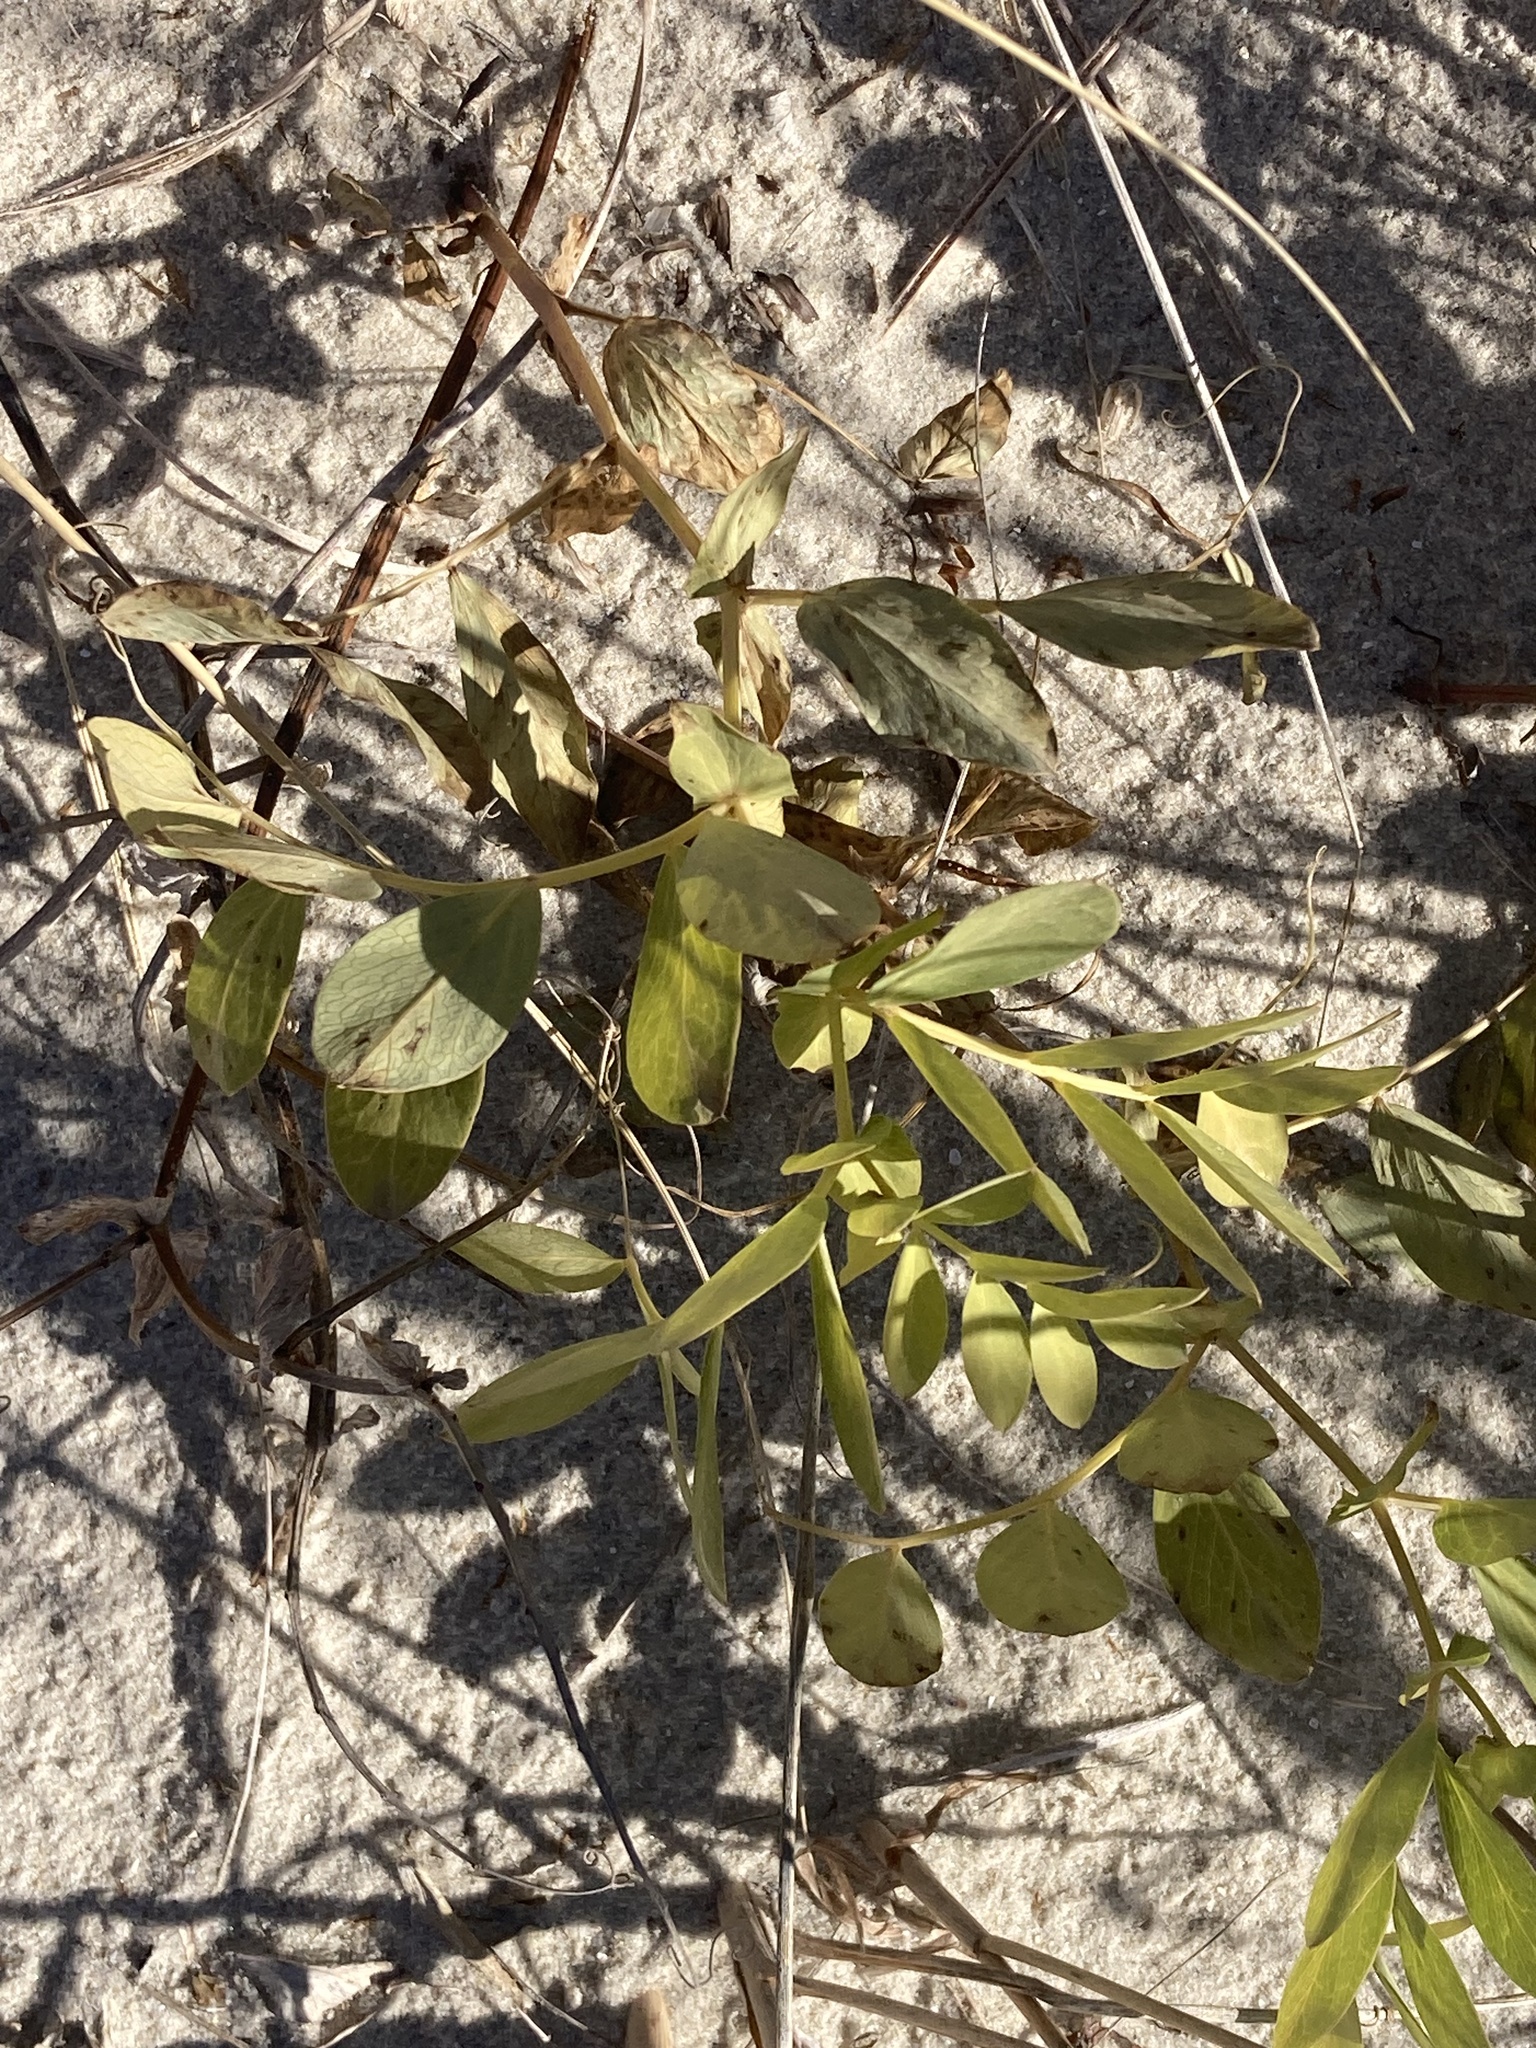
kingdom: Plantae
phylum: Tracheophyta
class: Magnoliopsida
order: Fabales
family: Fabaceae
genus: Lathyrus
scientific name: Lathyrus japonicus
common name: Sea pea
